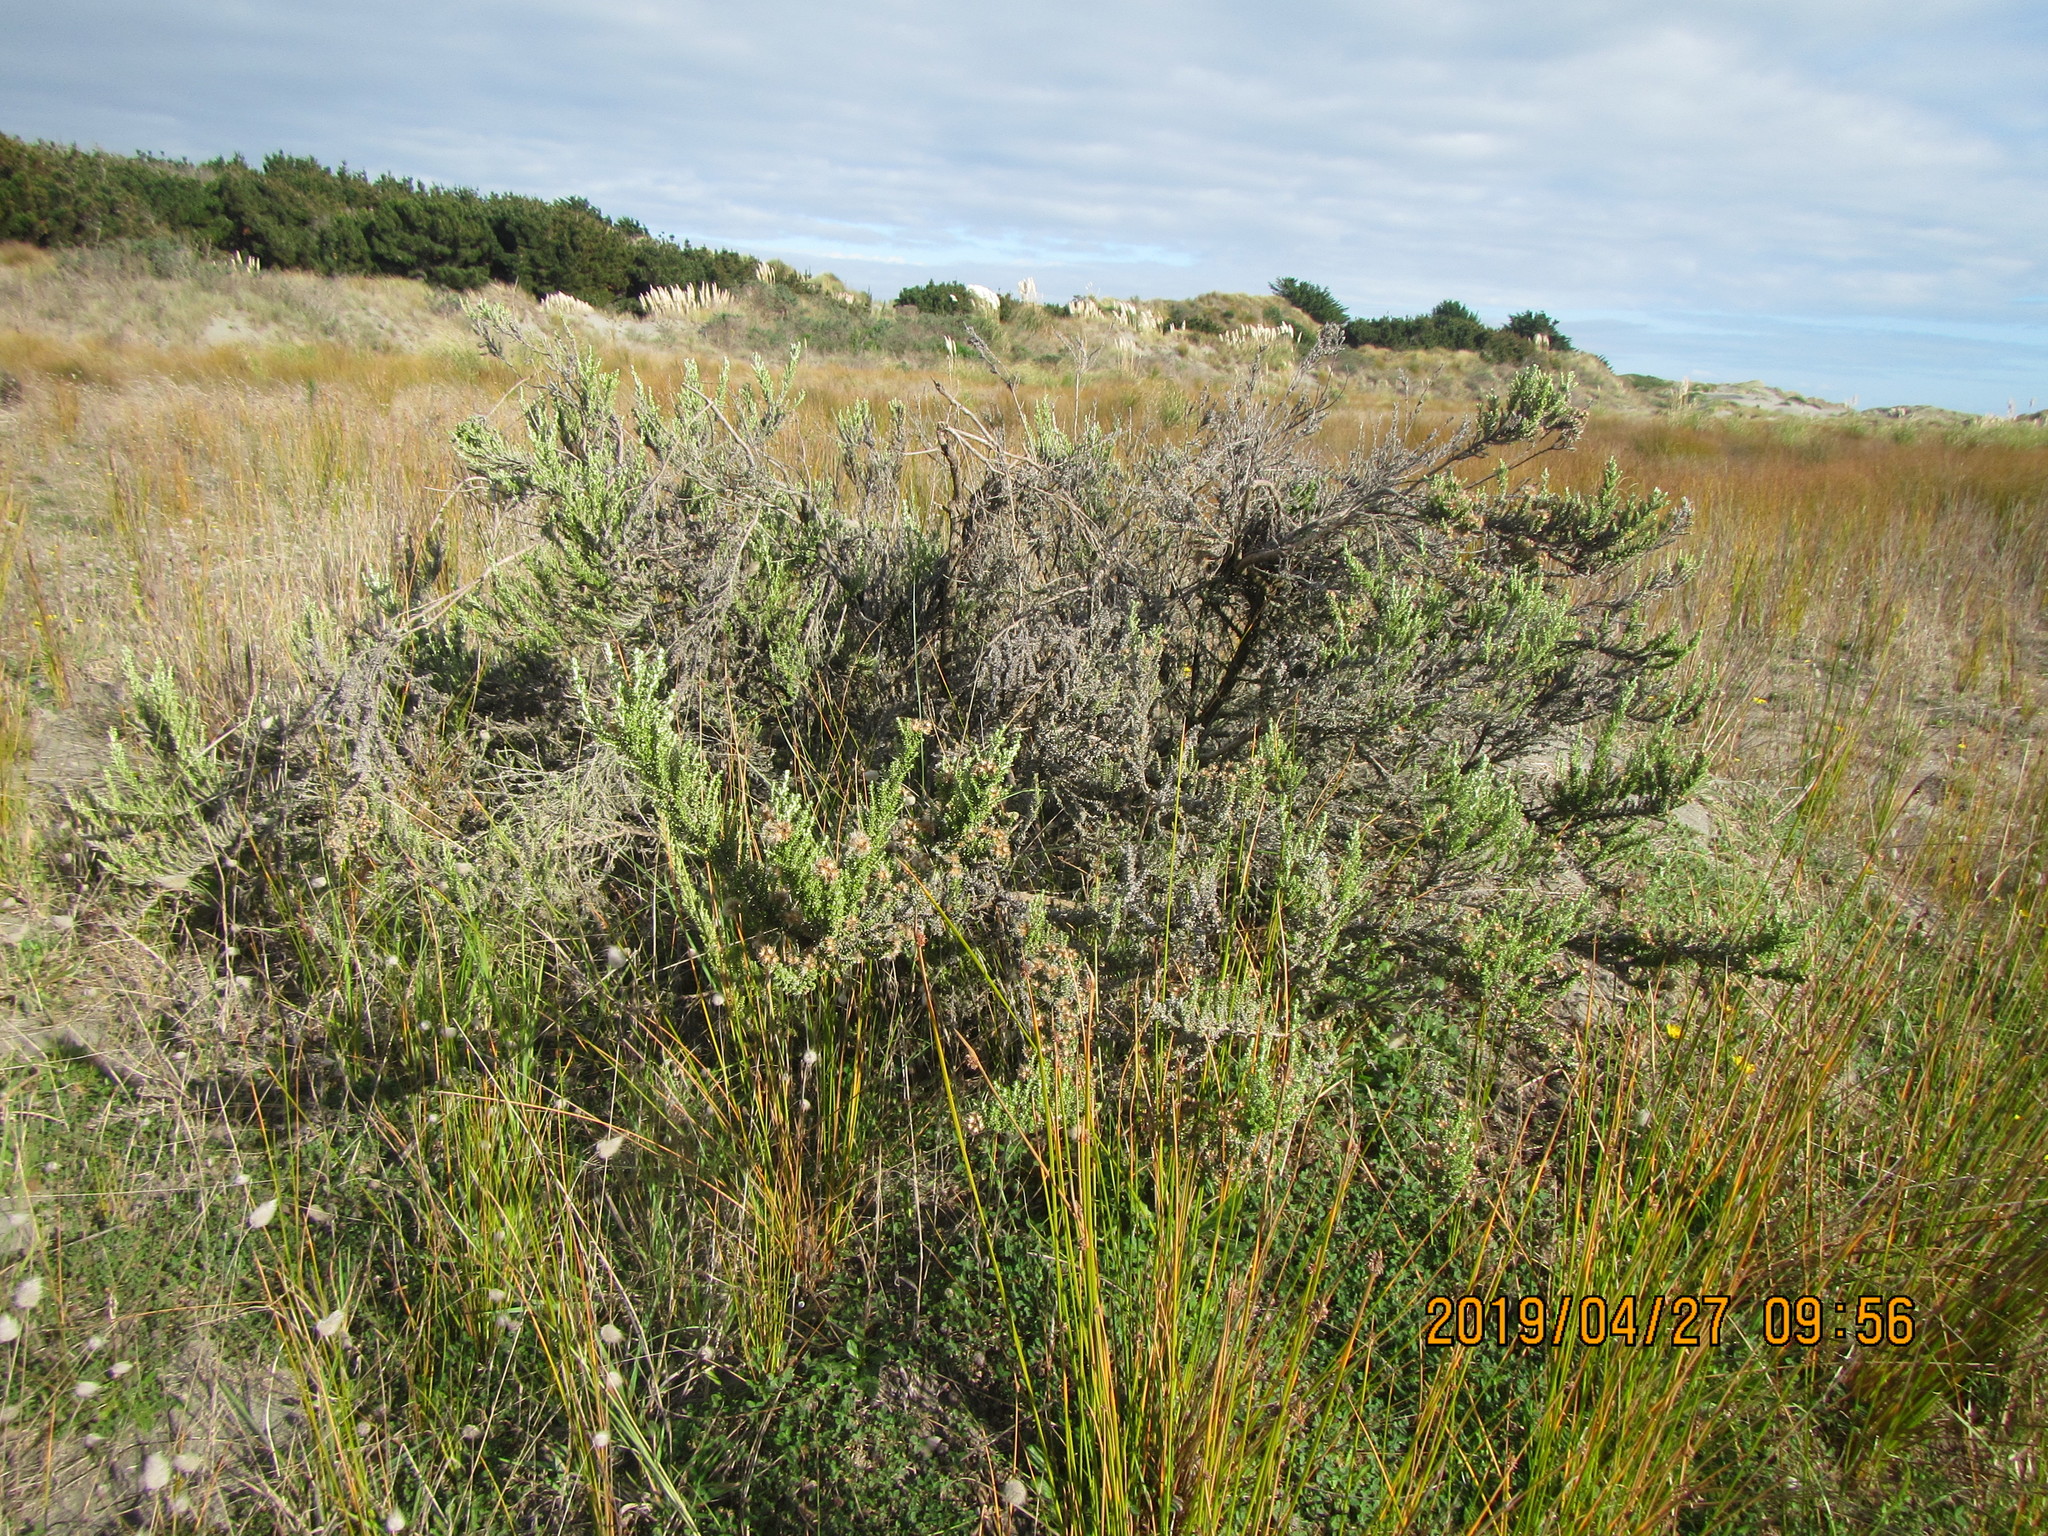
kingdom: Plantae
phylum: Tracheophyta
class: Magnoliopsida
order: Asterales
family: Asteraceae
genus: Ozothamnus
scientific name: Ozothamnus leptophyllus
